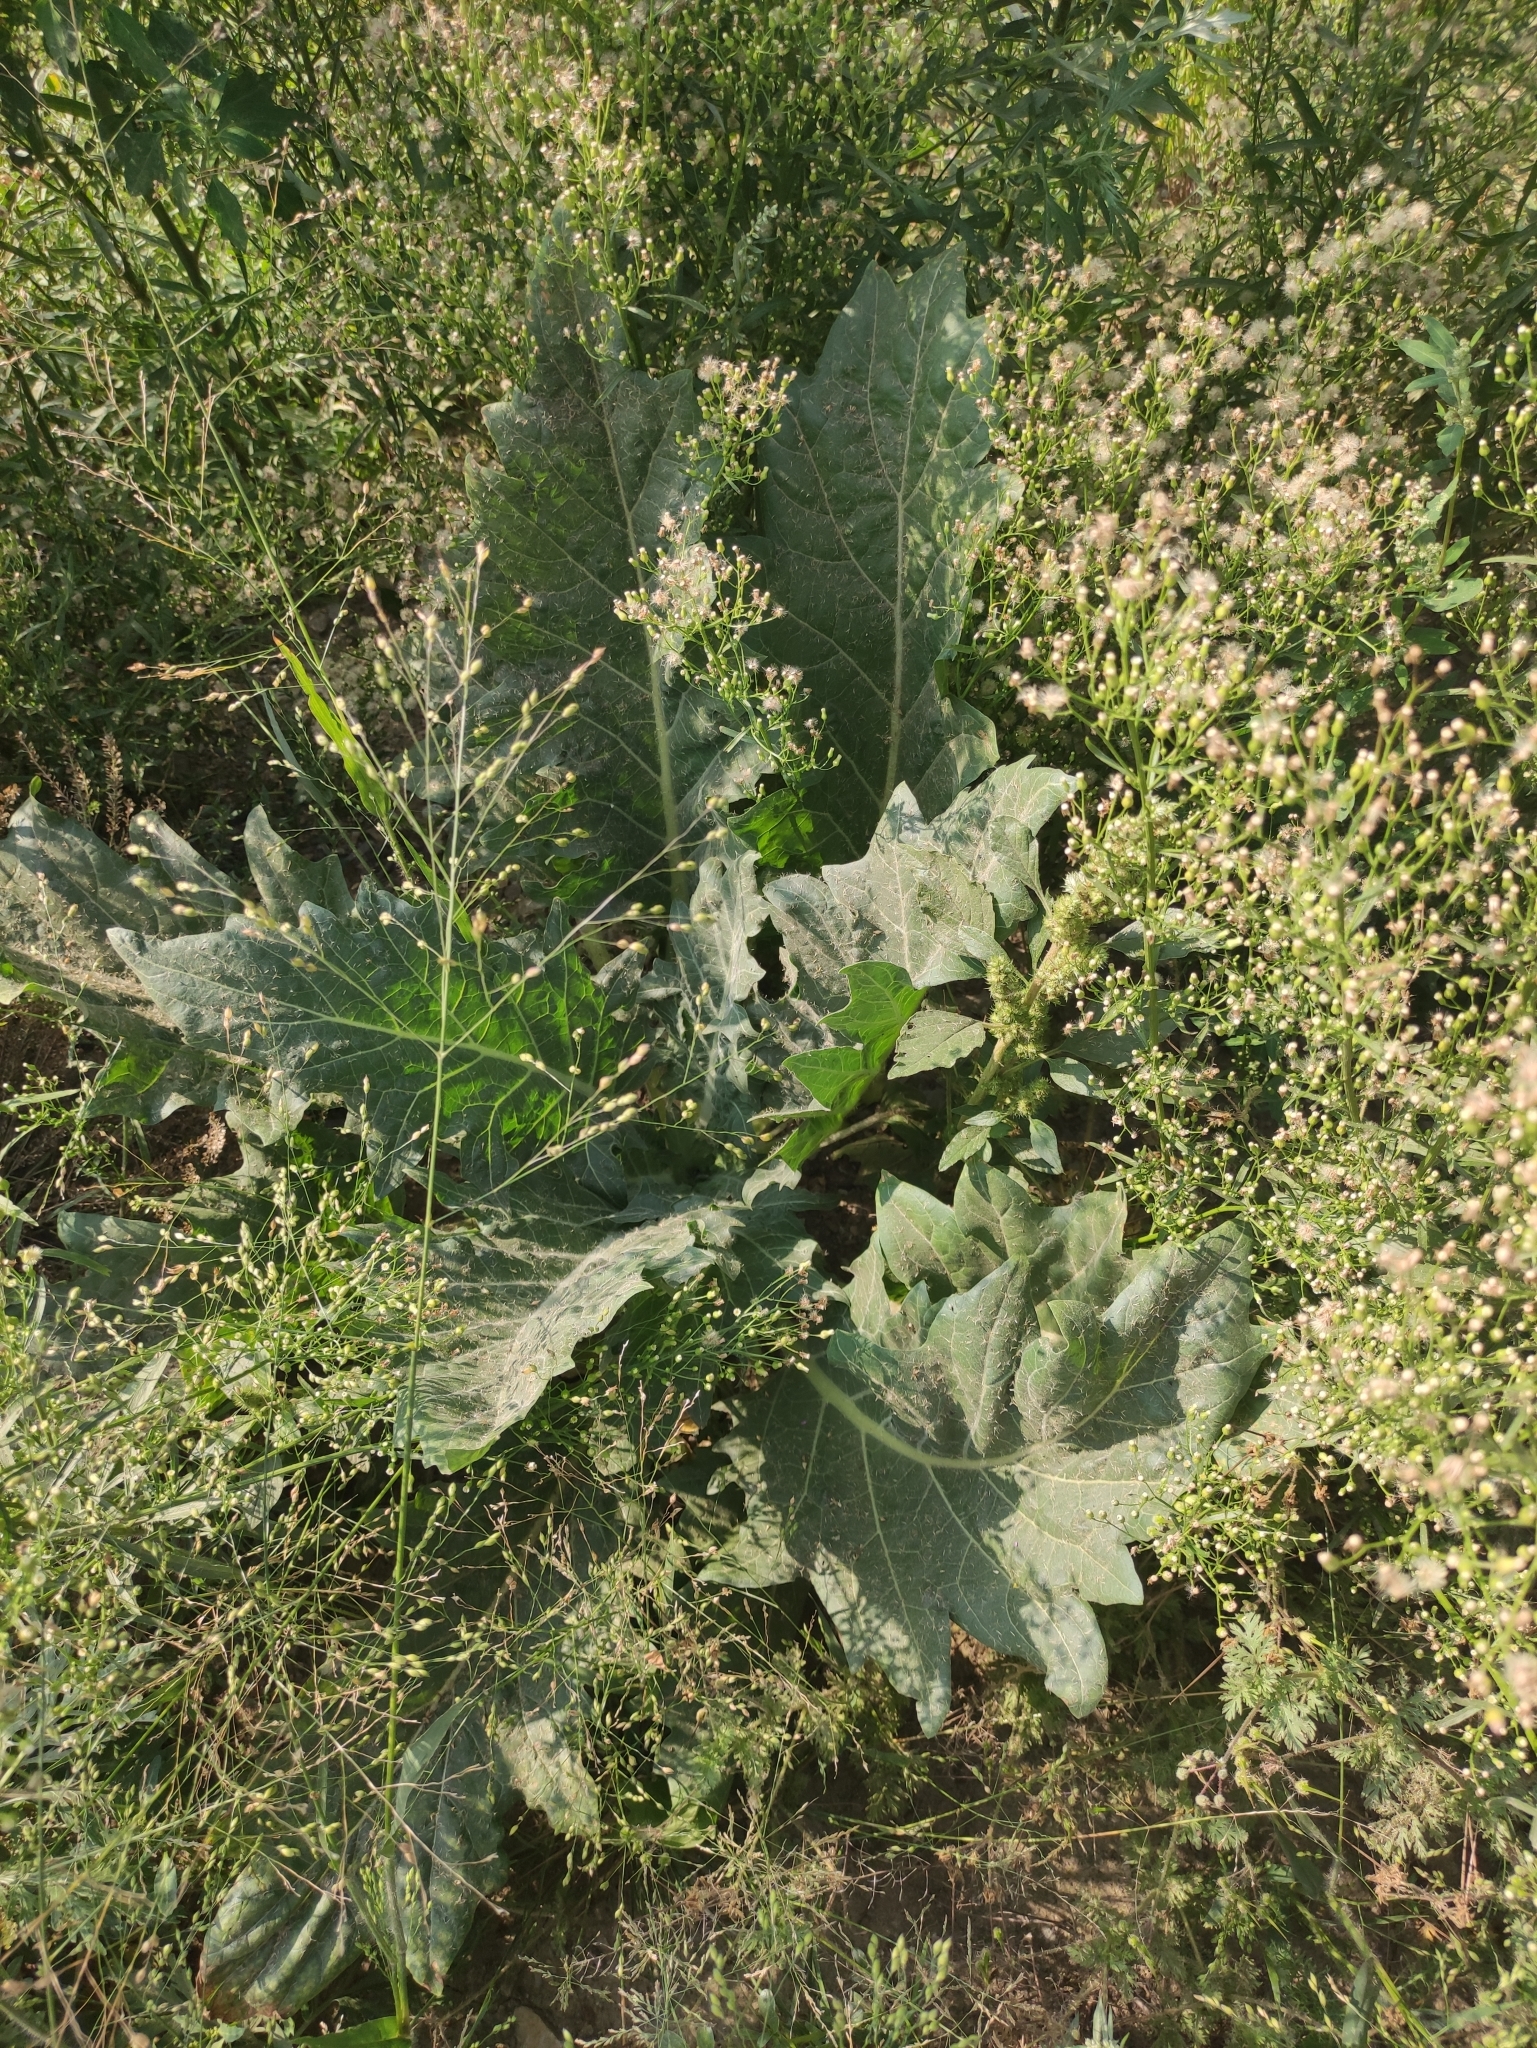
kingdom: Plantae
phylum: Tracheophyta
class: Magnoliopsida
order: Solanales
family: Solanaceae
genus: Hyoscyamus
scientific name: Hyoscyamus niger
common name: Henbane
